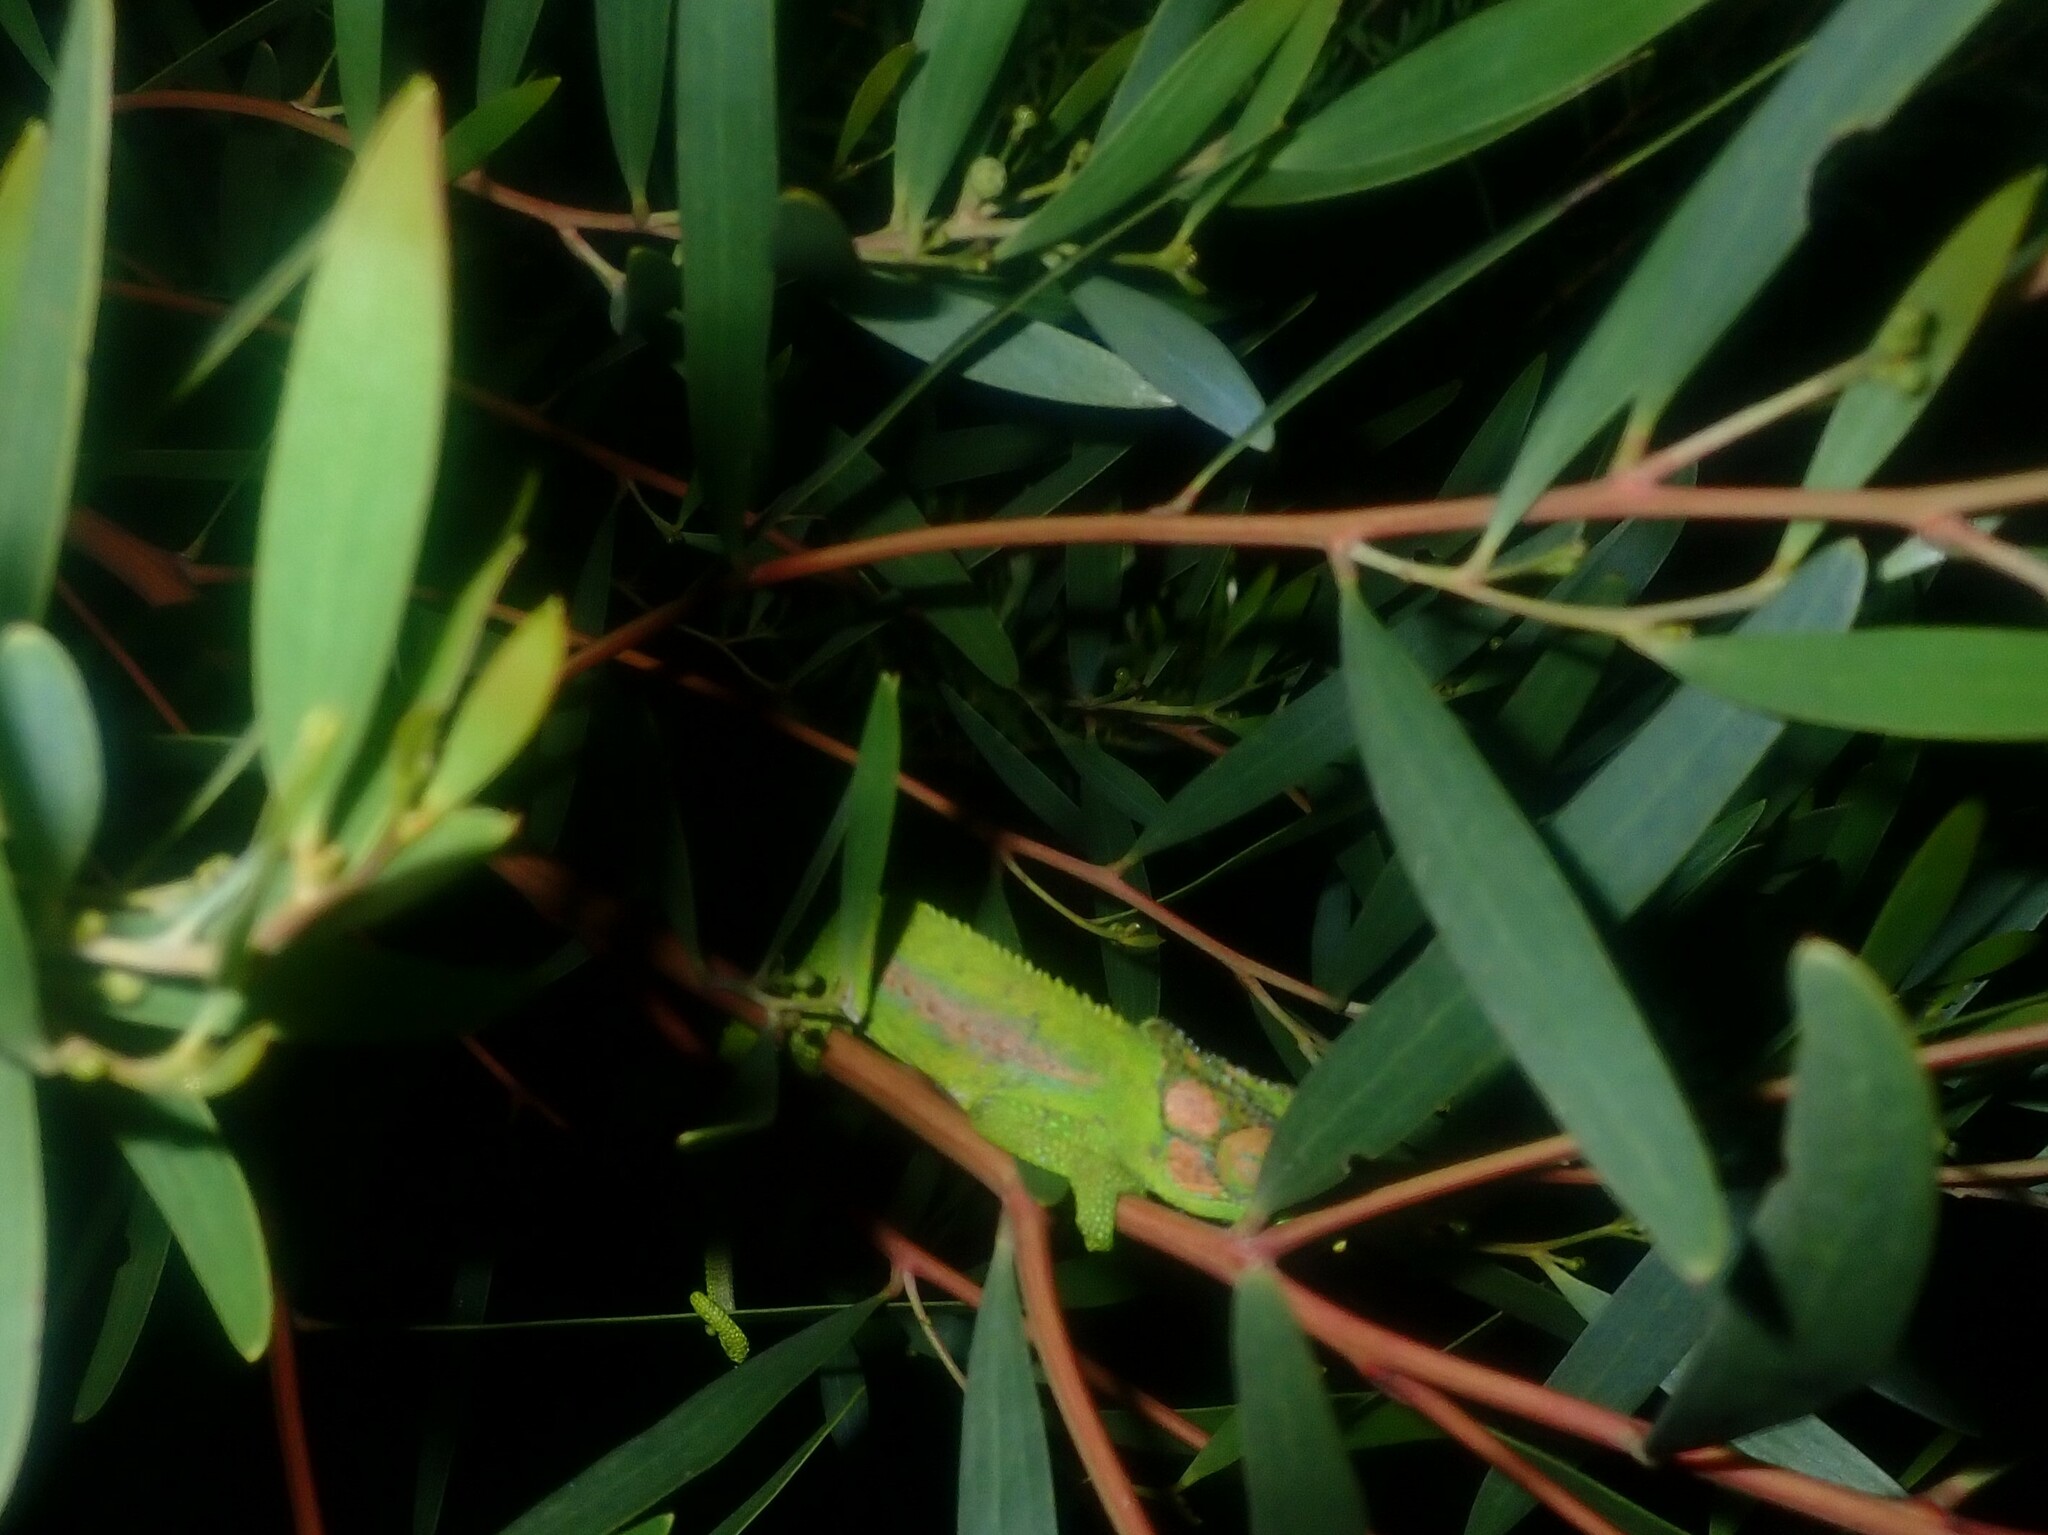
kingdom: Animalia
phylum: Chordata
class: Squamata
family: Chamaeleonidae
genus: Bradypodion
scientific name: Bradypodion pumilum
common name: Cape dwarf chameleon
